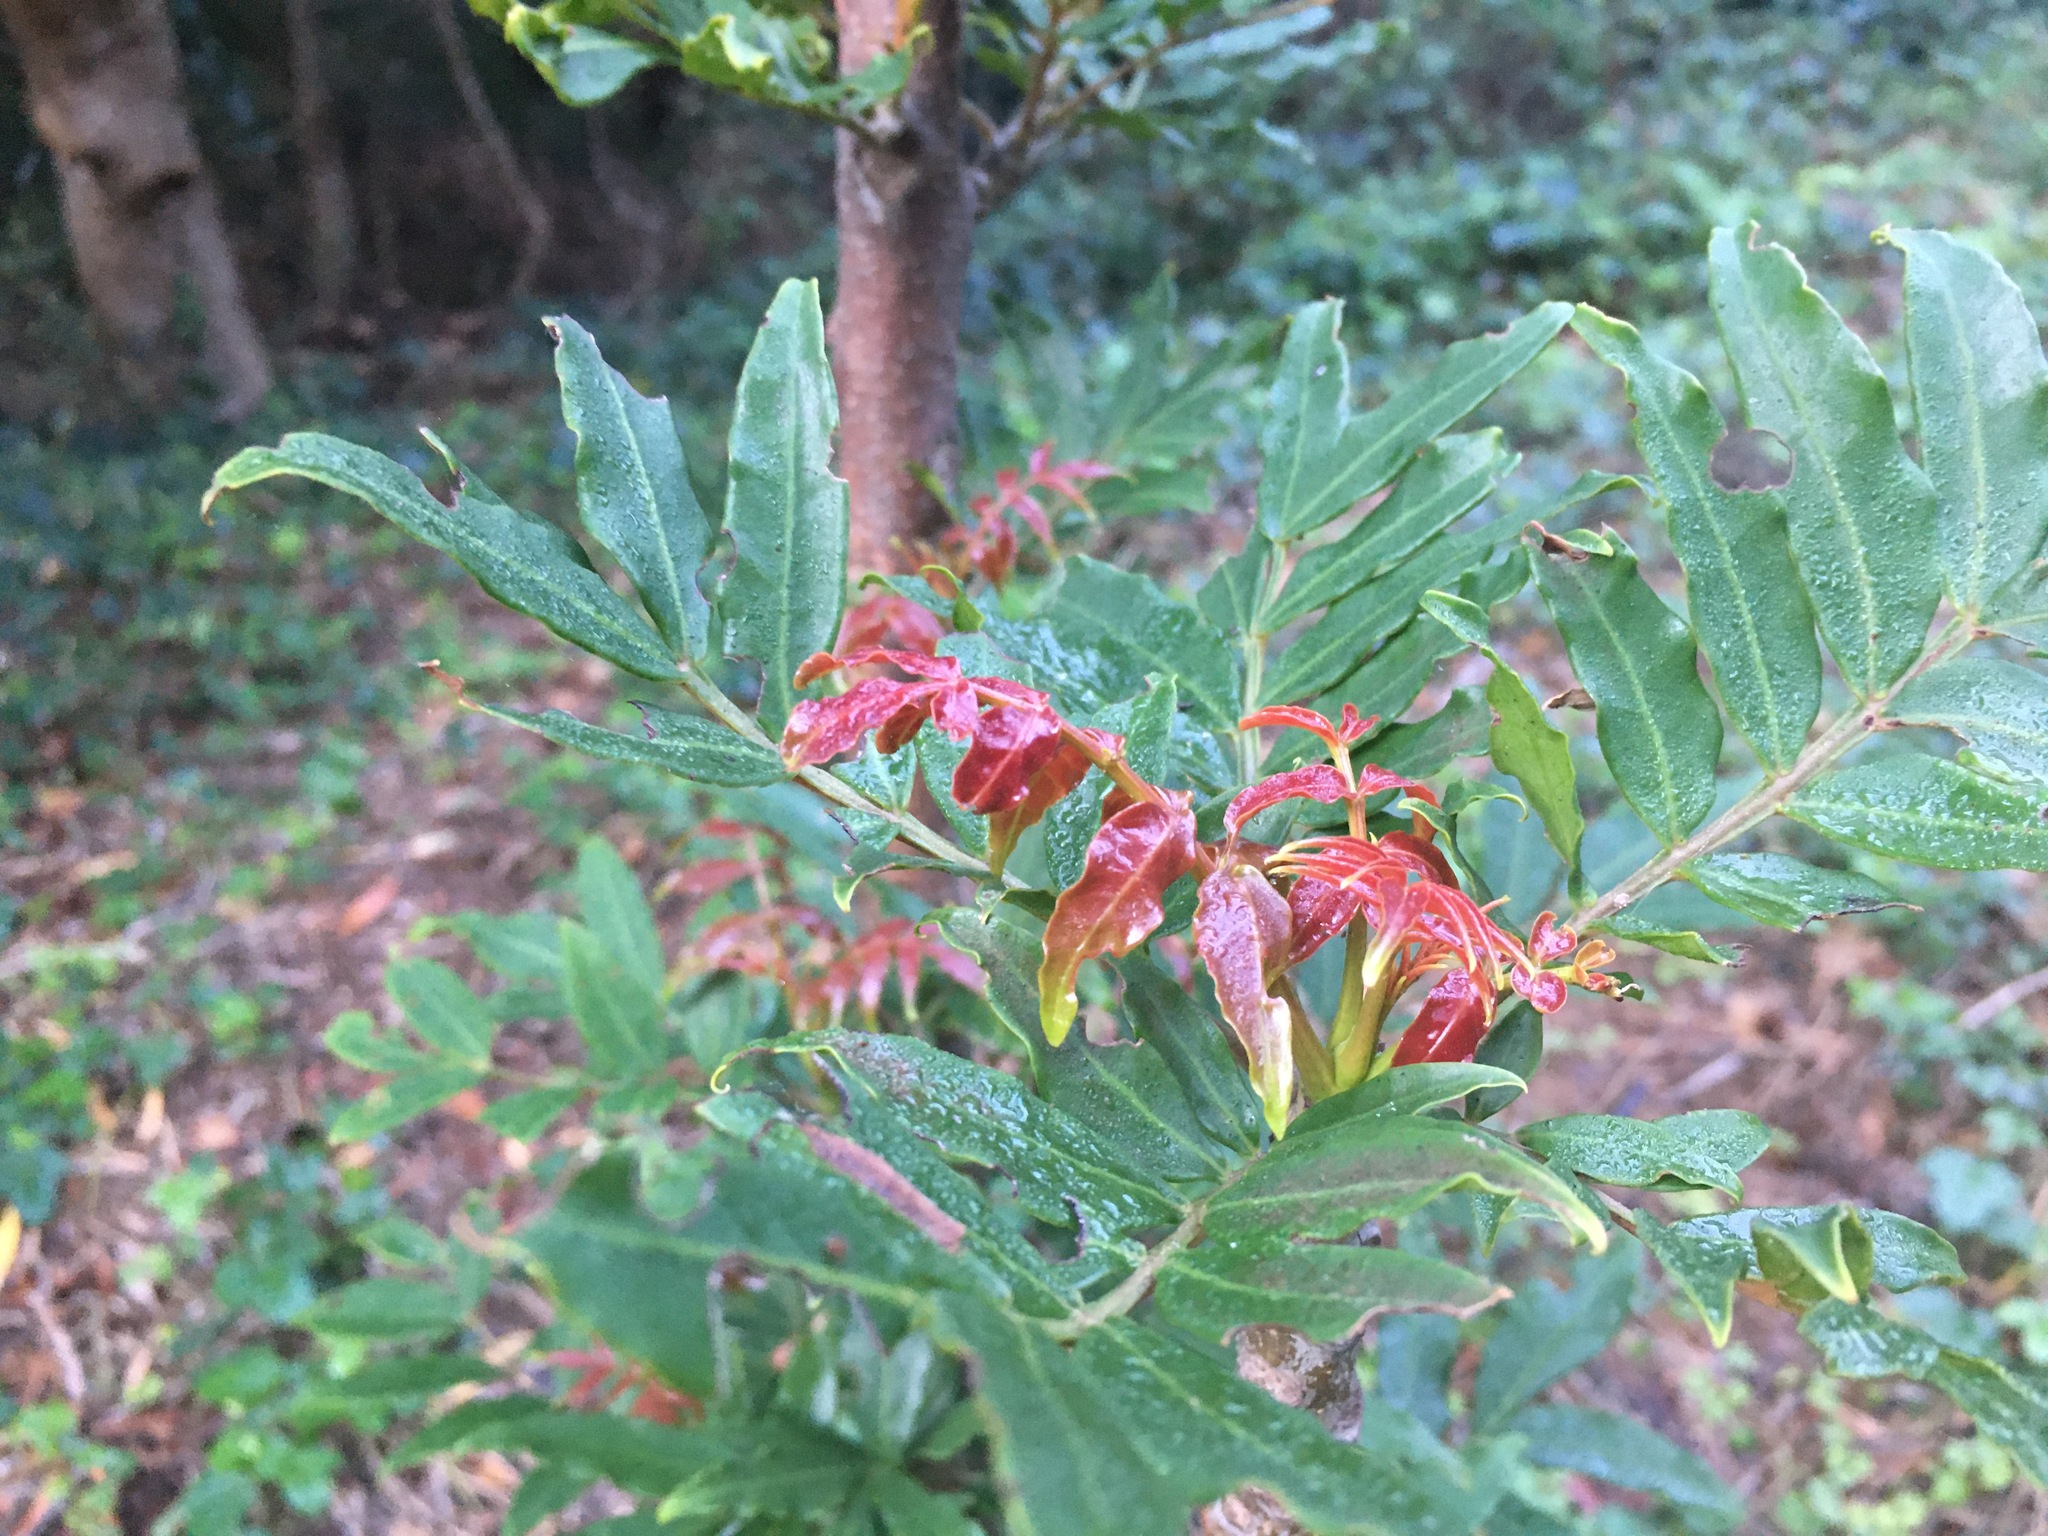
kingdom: Plantae
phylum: Tracheophyta
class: Magnoliopsida
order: Sapindales
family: Anacardiaceae
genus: Harpephyllum
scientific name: Harpephyllum caffrum
